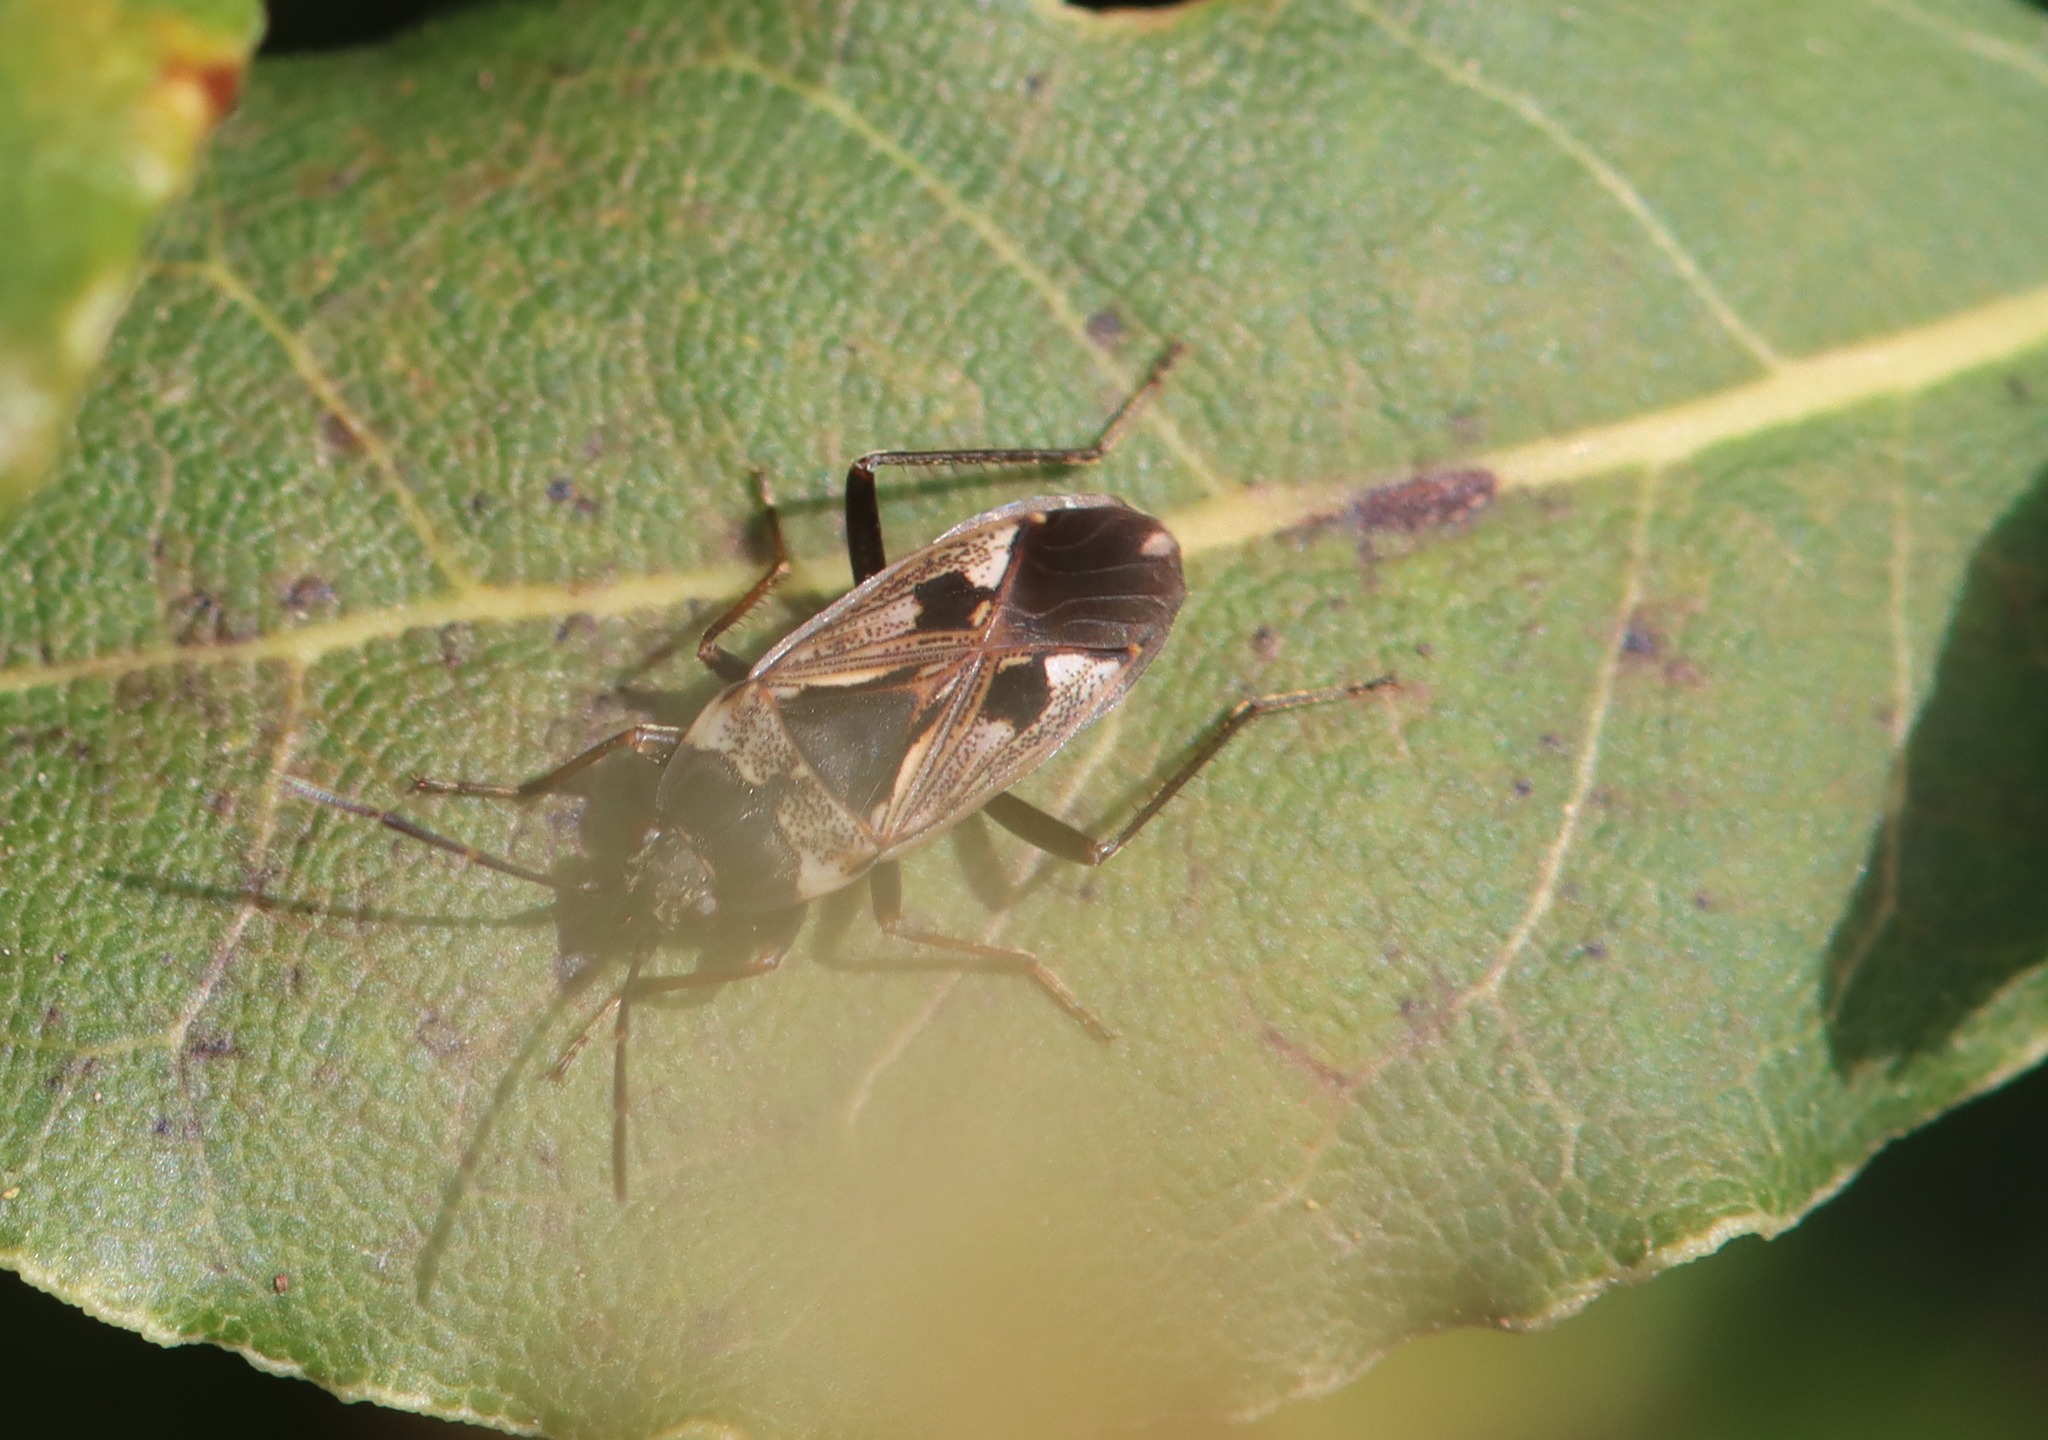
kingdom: Animalia
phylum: Arthropoda
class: Insecta
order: Hemiptera
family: Rhyparochromidae
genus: Rhyparochromus
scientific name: Rhyparochromus vulgaris
